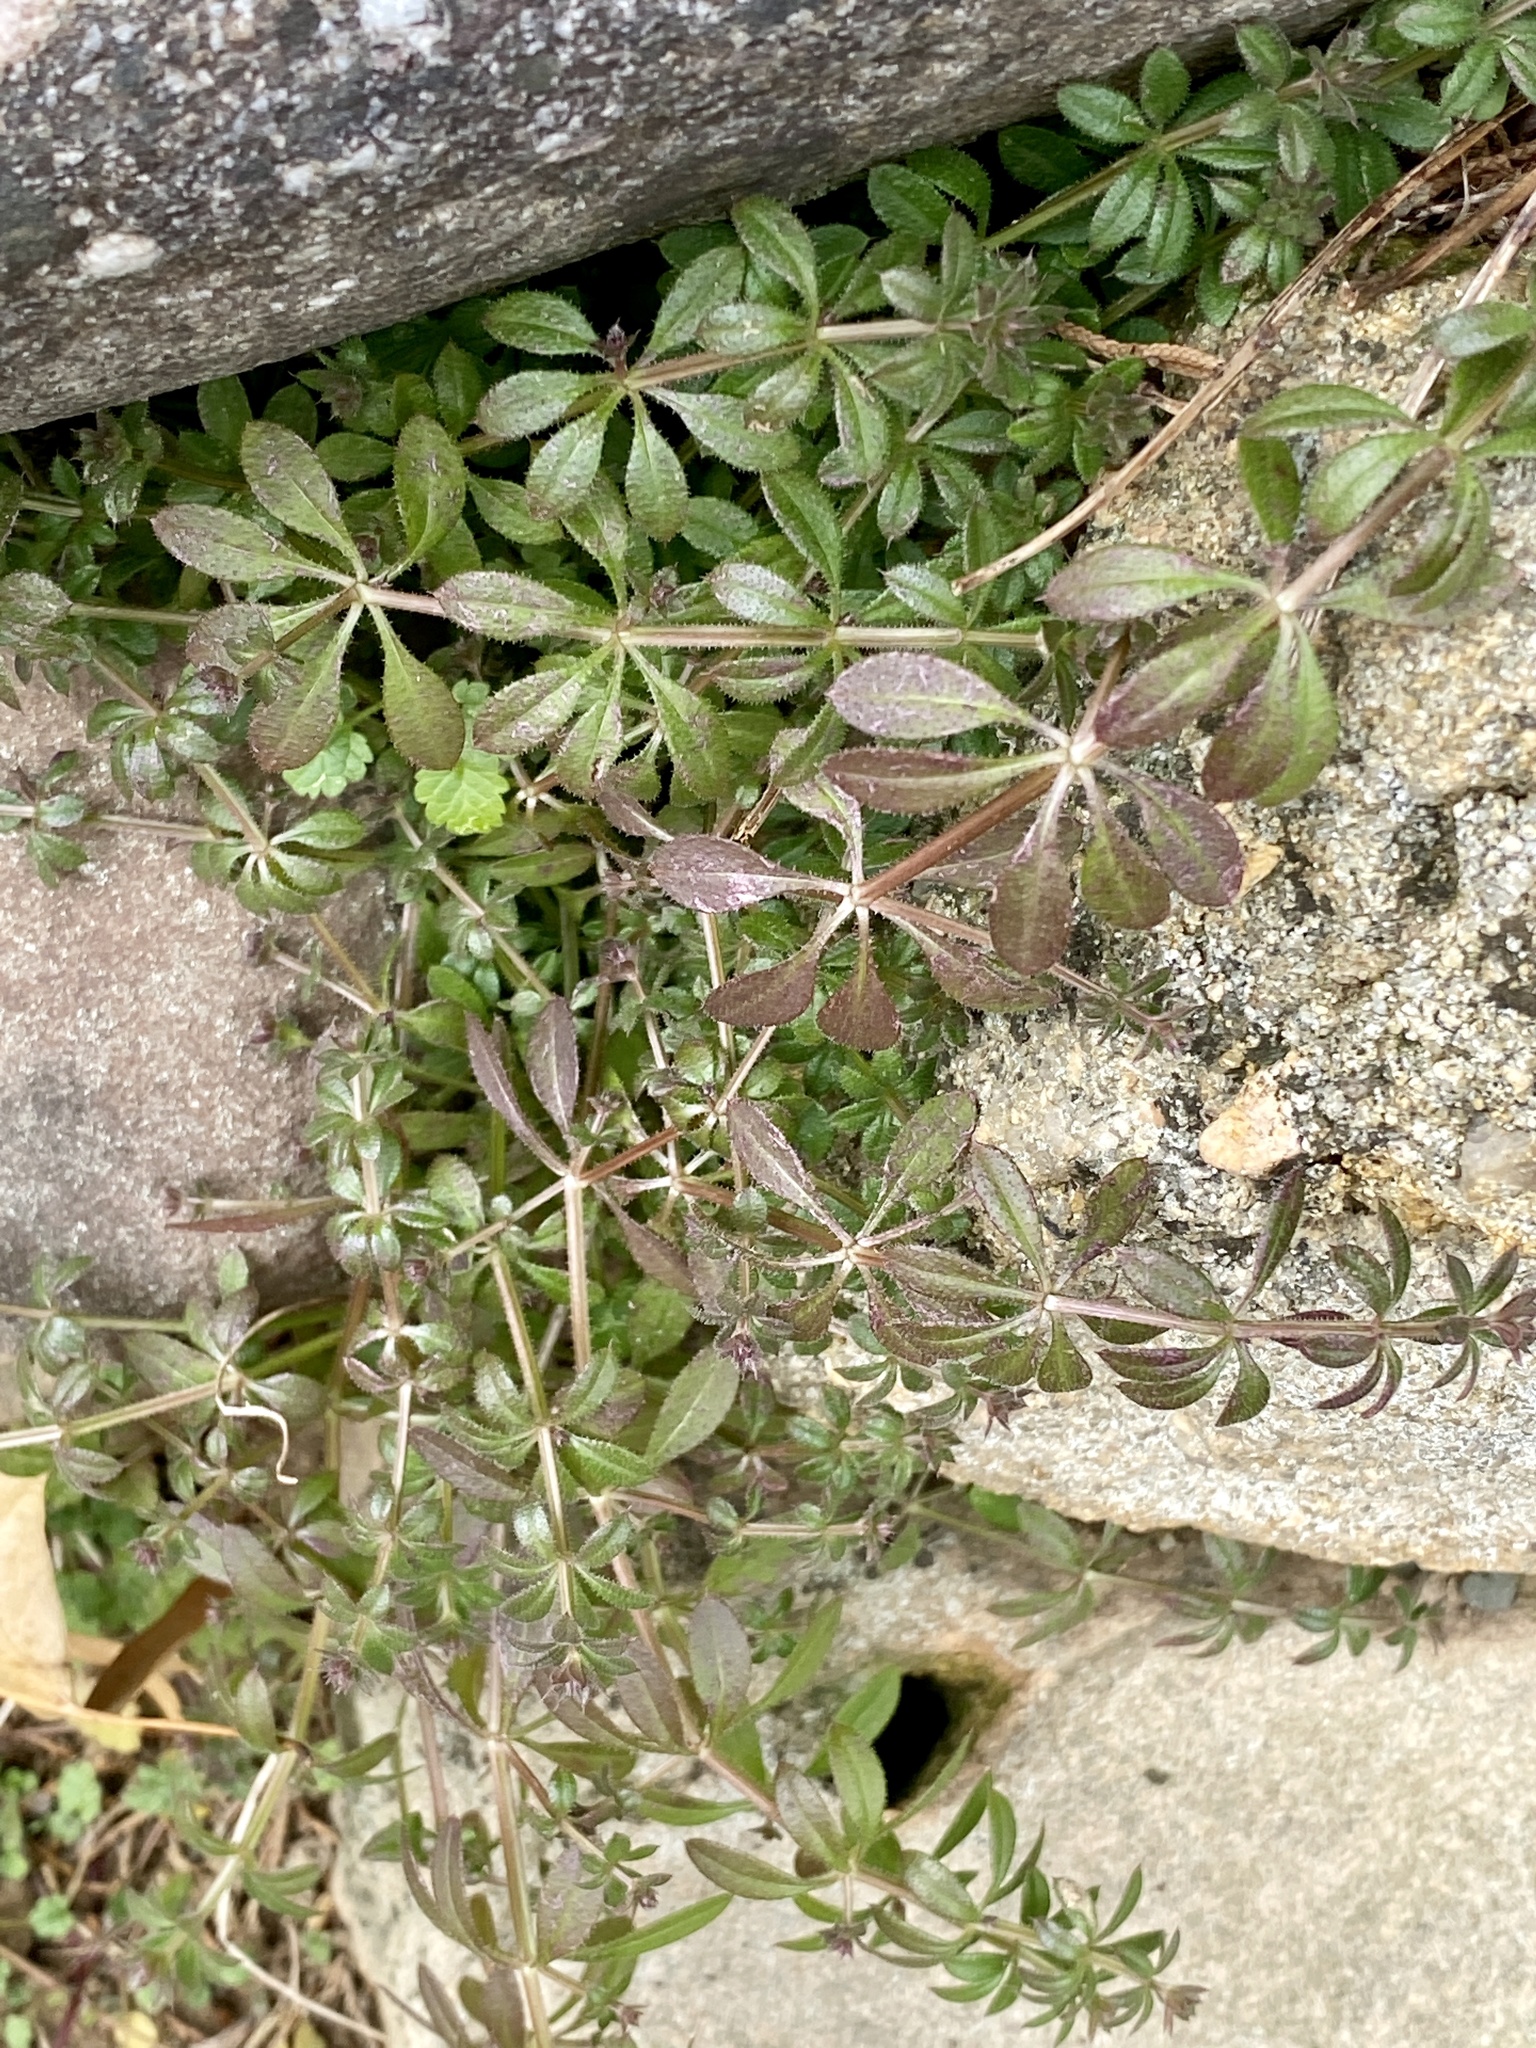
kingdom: Plantae
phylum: Tracheophyta
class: Magnoliopsida
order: Gentianales
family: Rubiaceae
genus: Galium
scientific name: Galium aparine
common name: Cleavers
